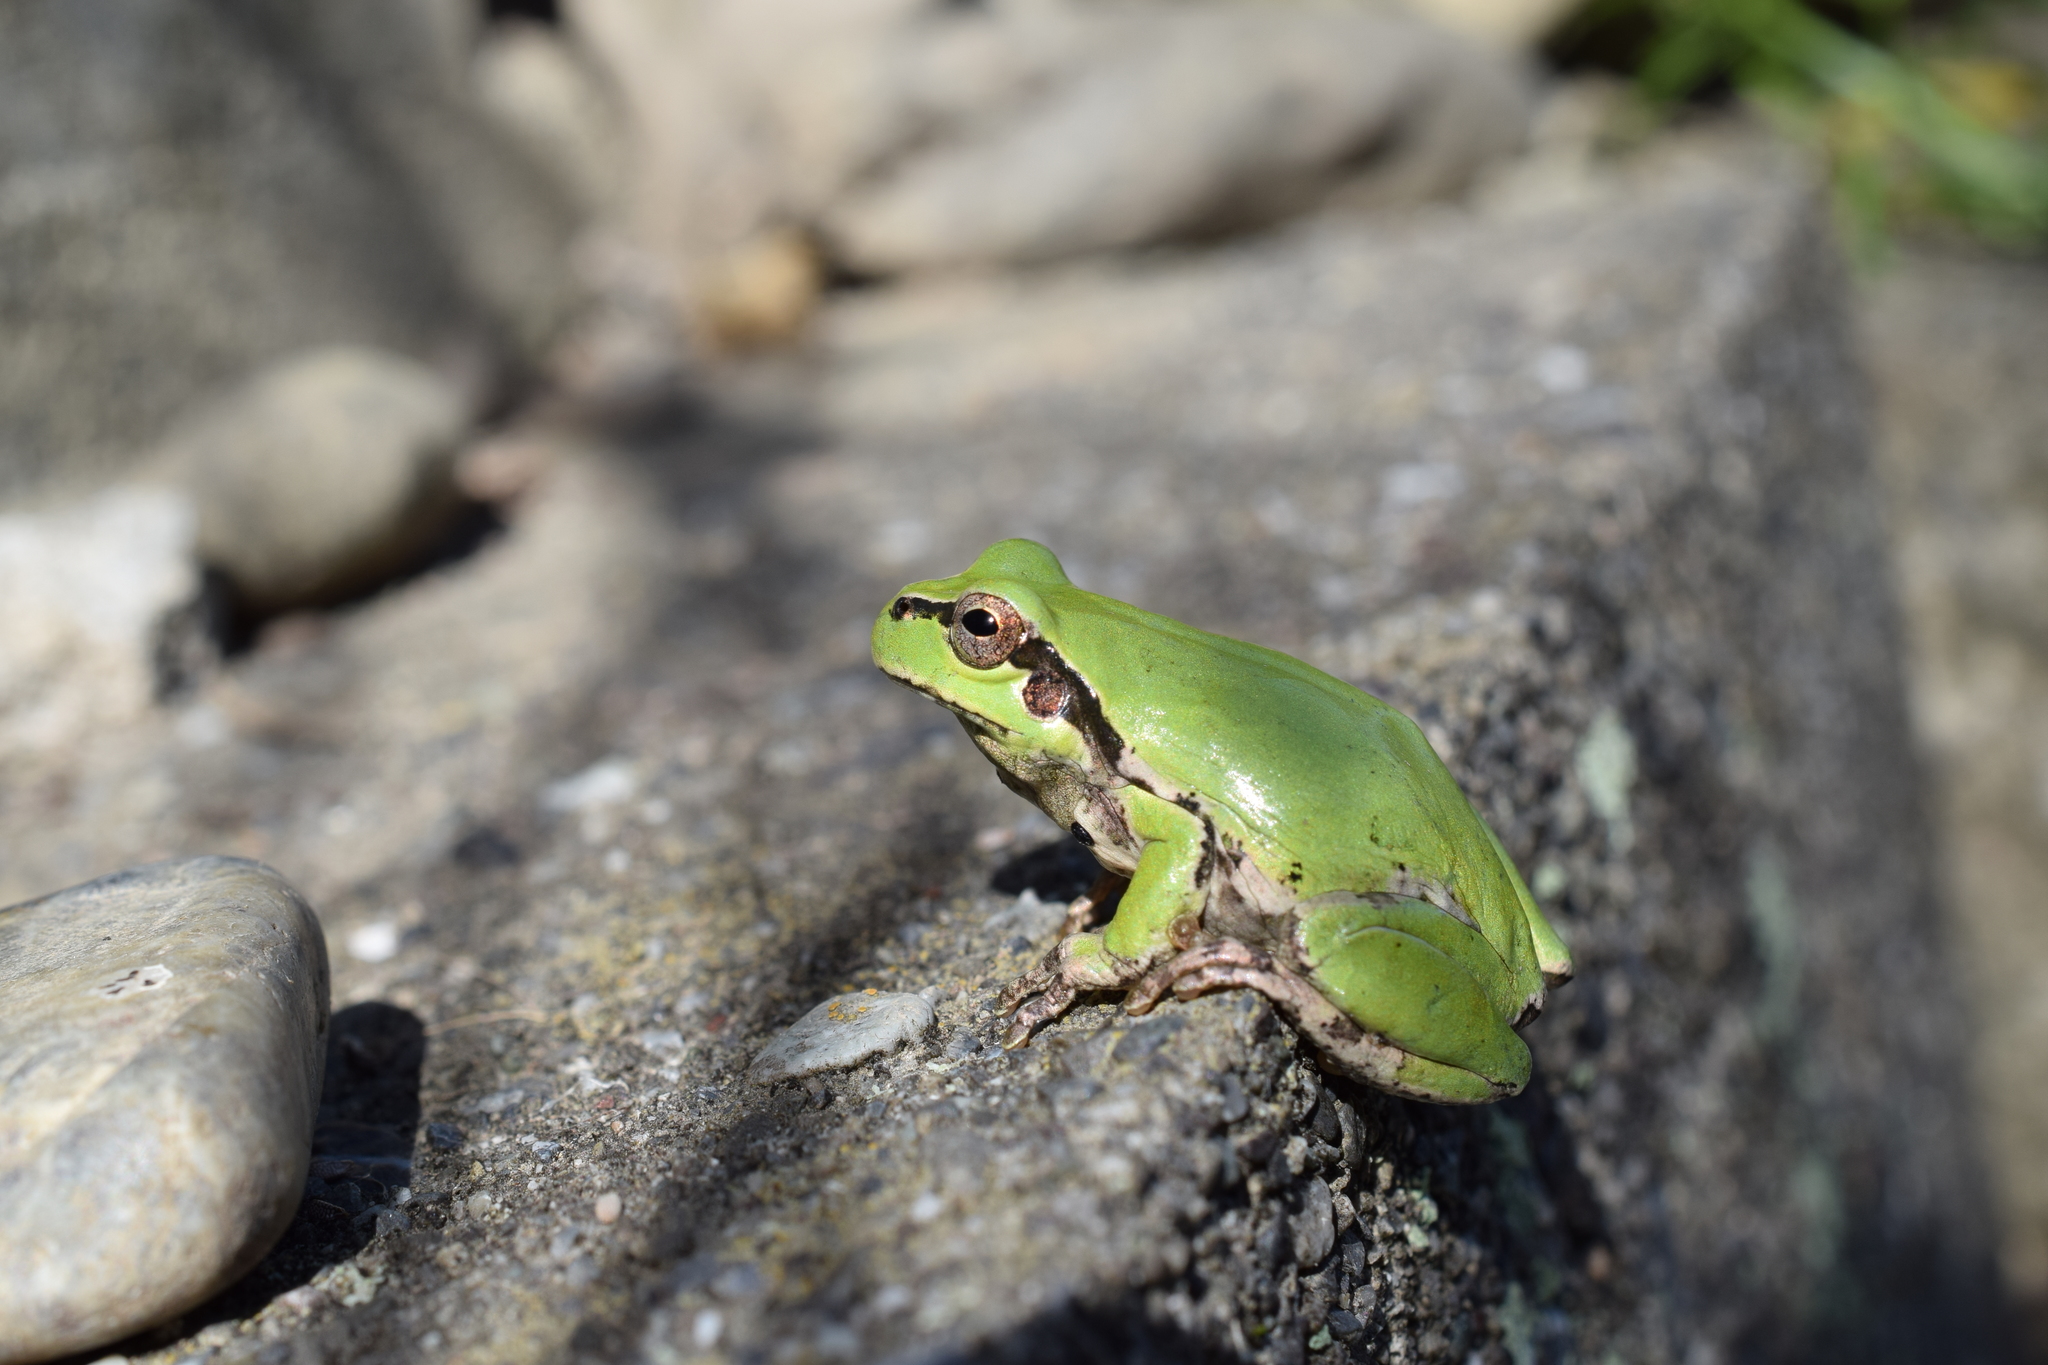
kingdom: Animalia
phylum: Chordata
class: Amphibia
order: Anura
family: Hylidae
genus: Dryophytes
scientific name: Dryophytes japonicus
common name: Japanese treefrog
